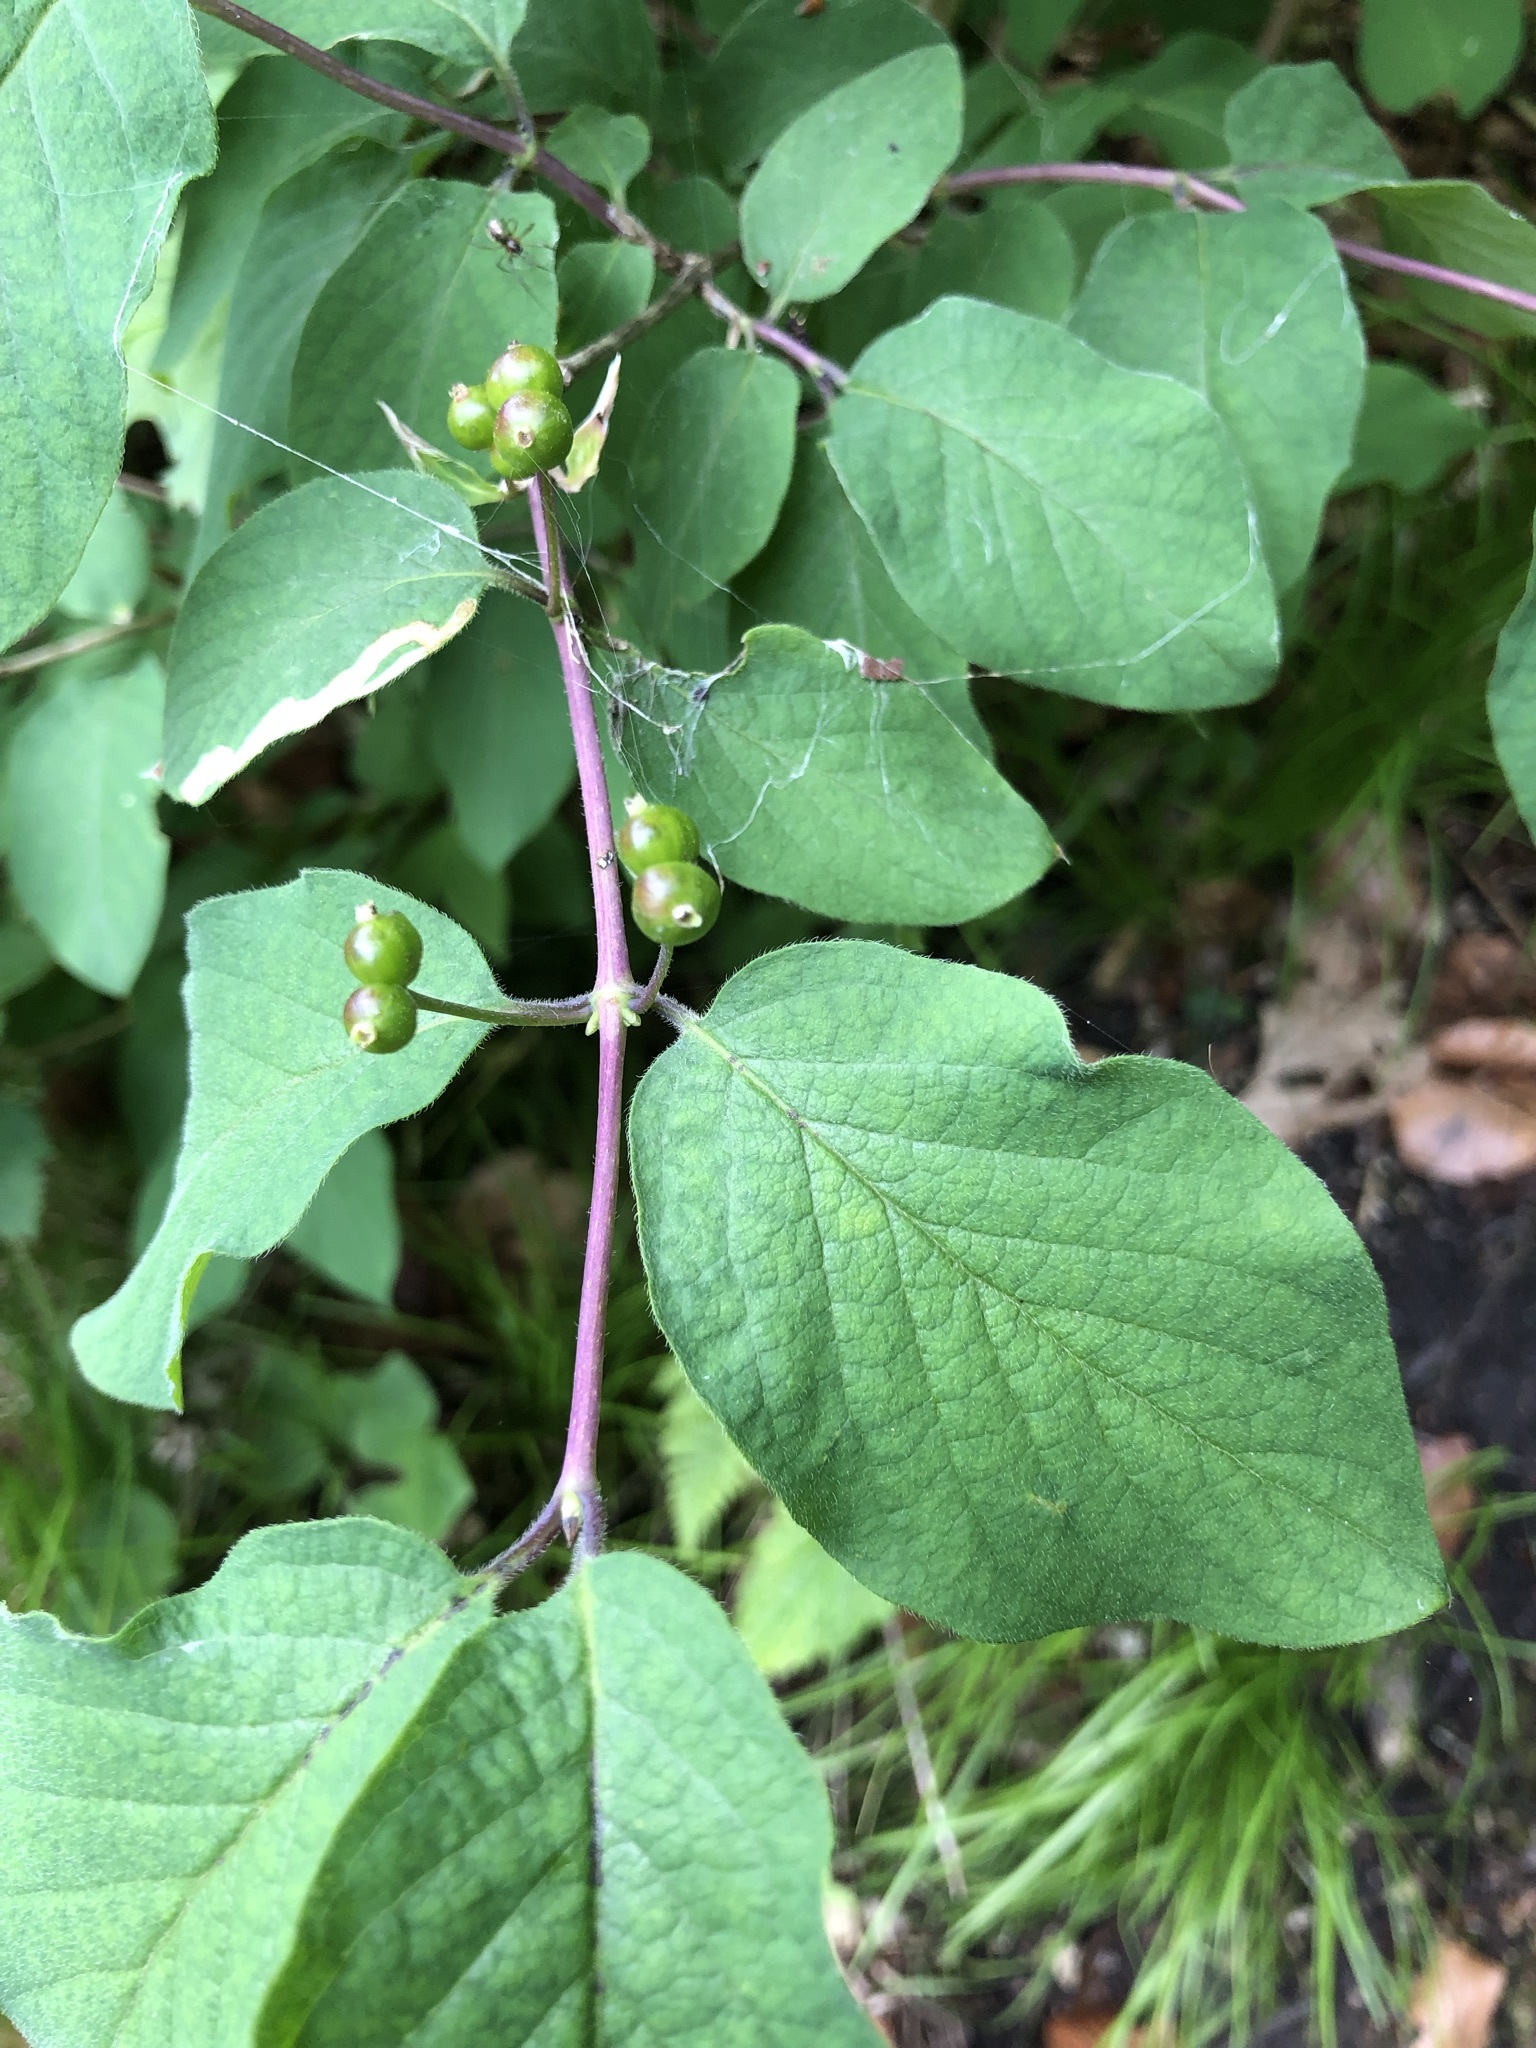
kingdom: Plantae
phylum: Tracheophyta
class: Magnoliopsida
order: Dipsacales
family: Caprifoliaceae
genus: Lonicera
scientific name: Lonicera xylosteum
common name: Fly honeysuckle
